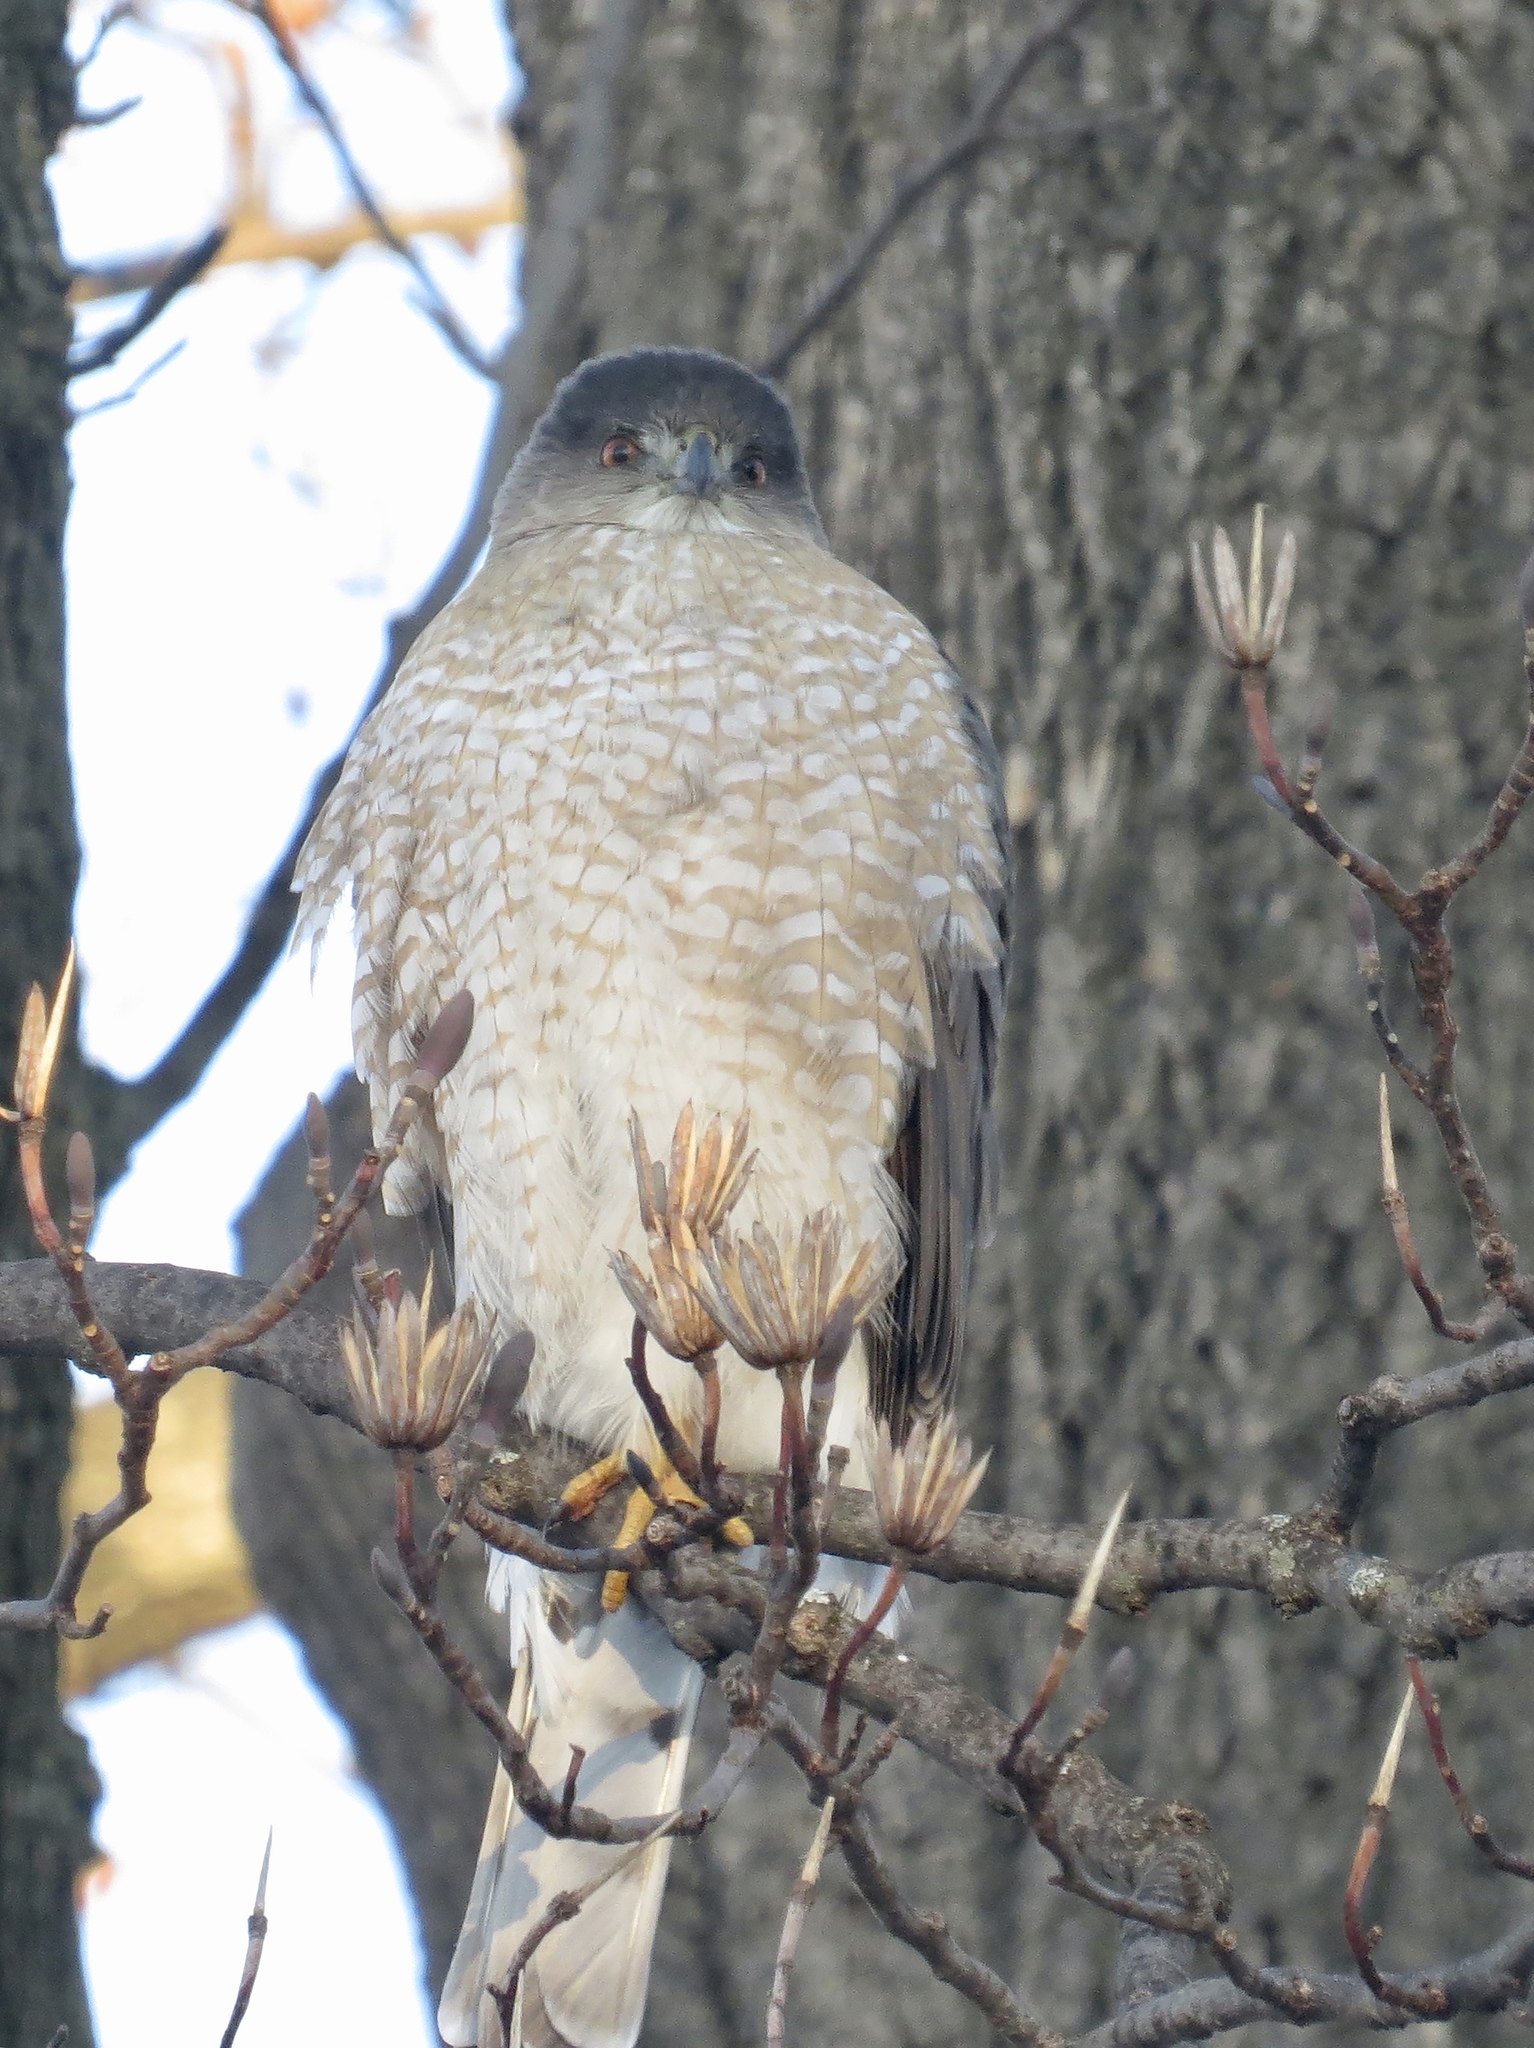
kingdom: Animalia
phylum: Chordata
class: Aves
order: Accipitriformes
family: Accipitridae
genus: Accipiter
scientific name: Accipiter cooperii
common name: Cooper's hawk
